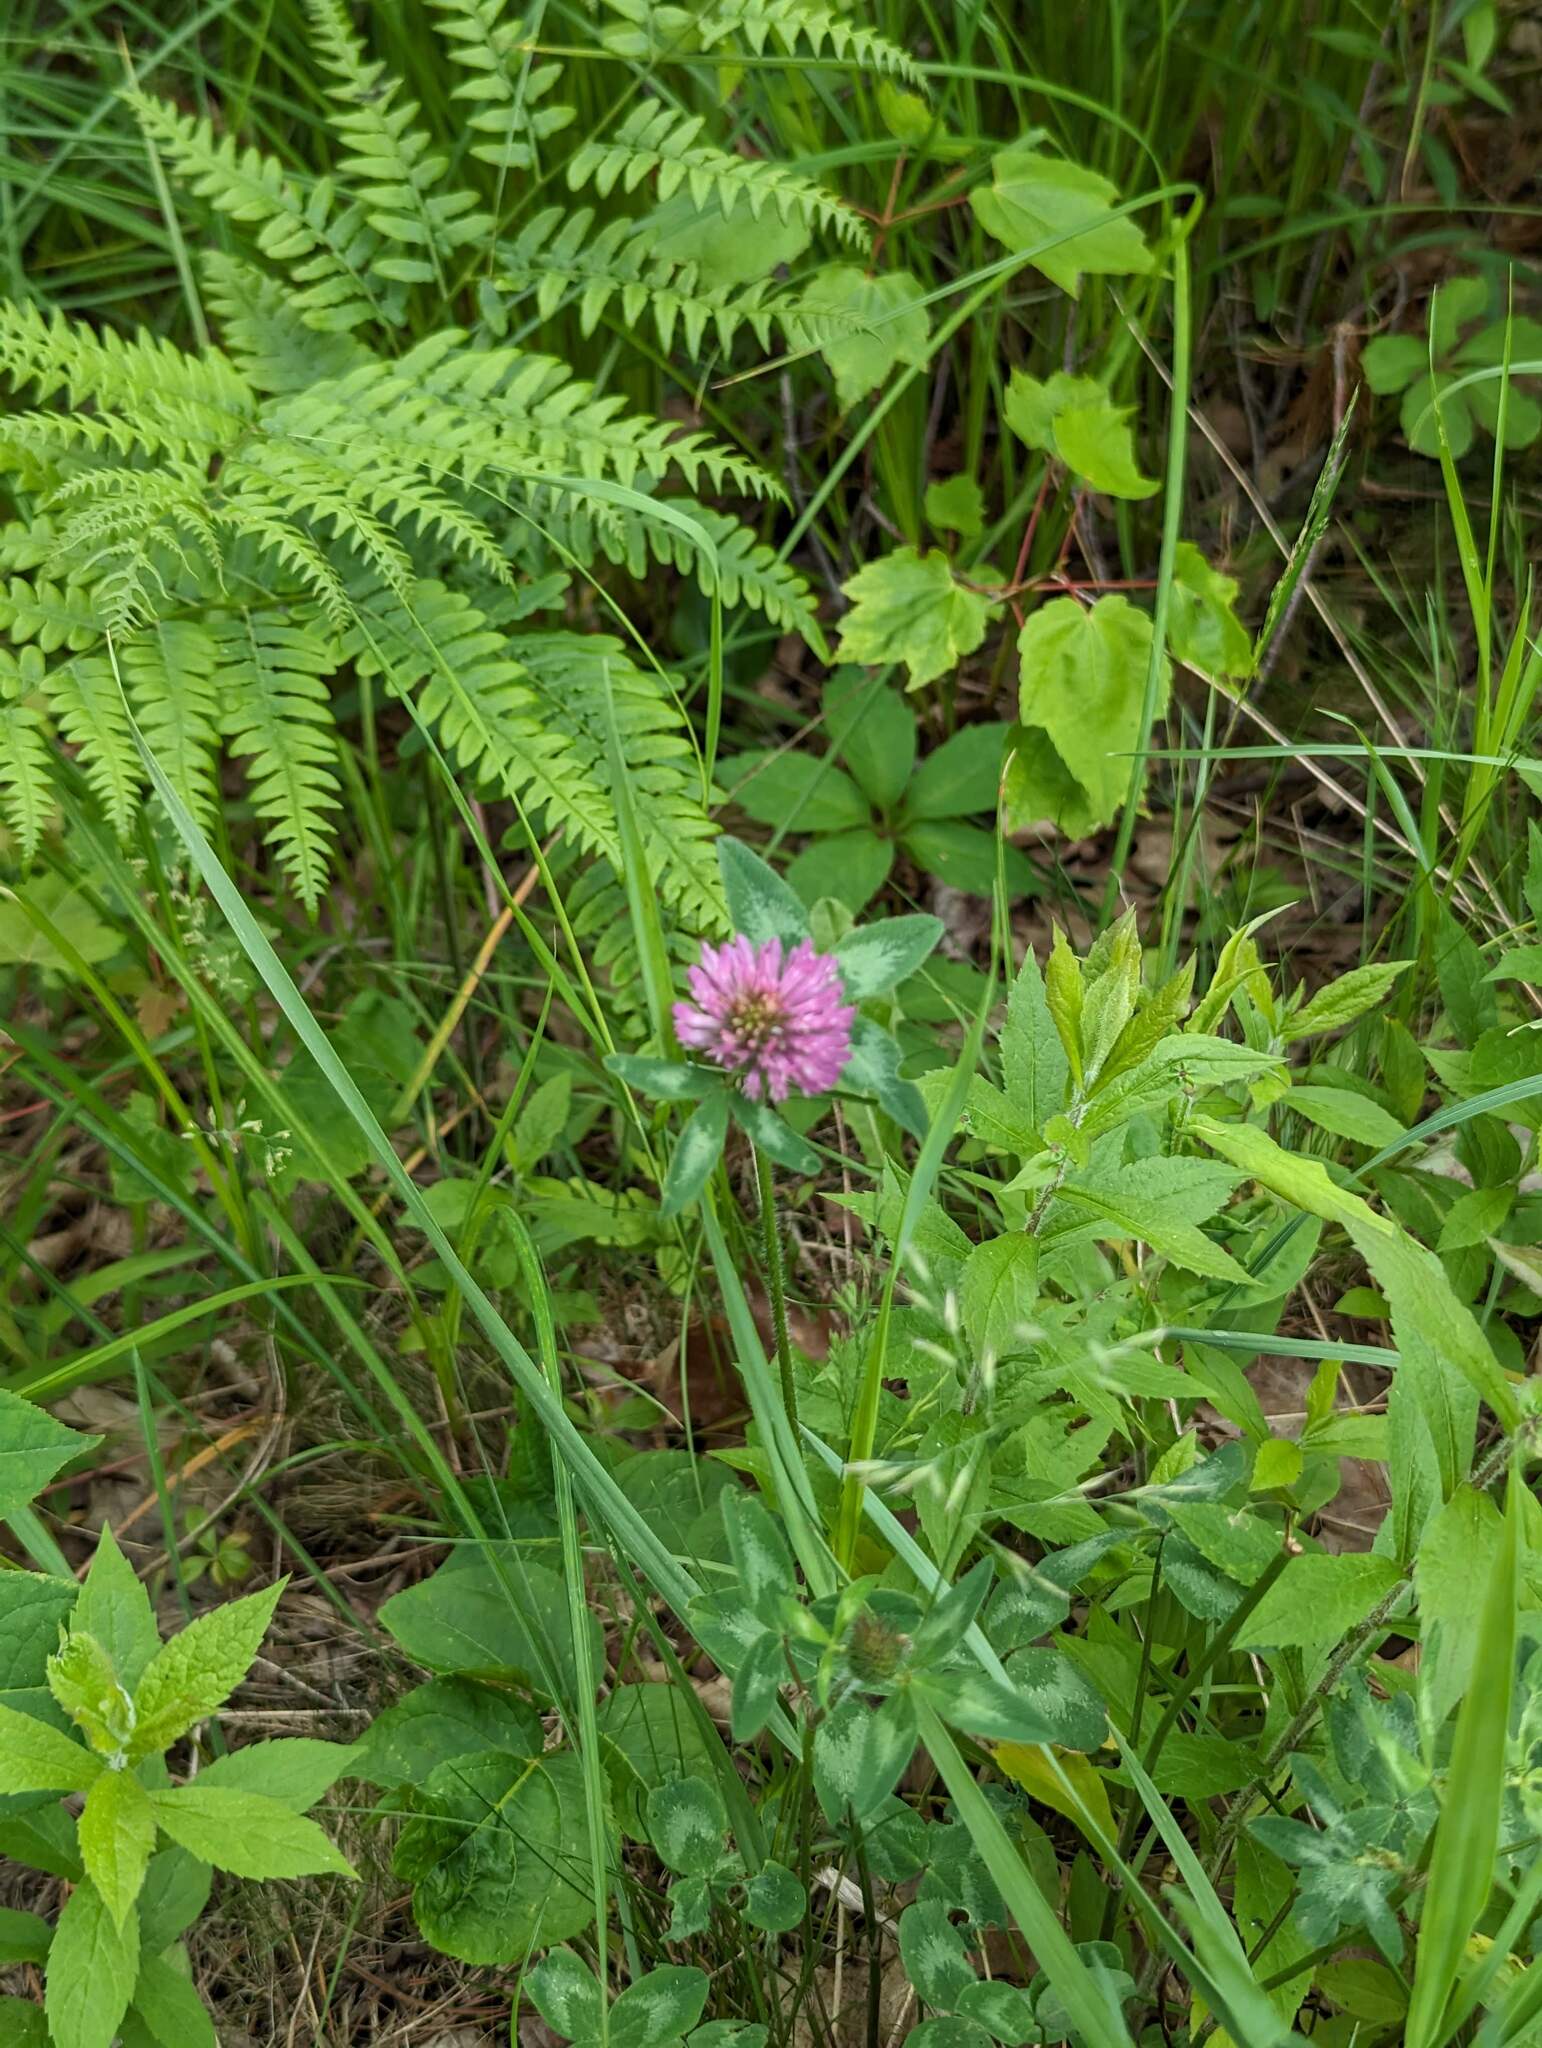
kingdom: Plantae
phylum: Tracheophyta
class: Magnoliopsida
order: Fabales
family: Fabaceae
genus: Trifolium
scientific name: Trifolium pratense
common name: Red clover
